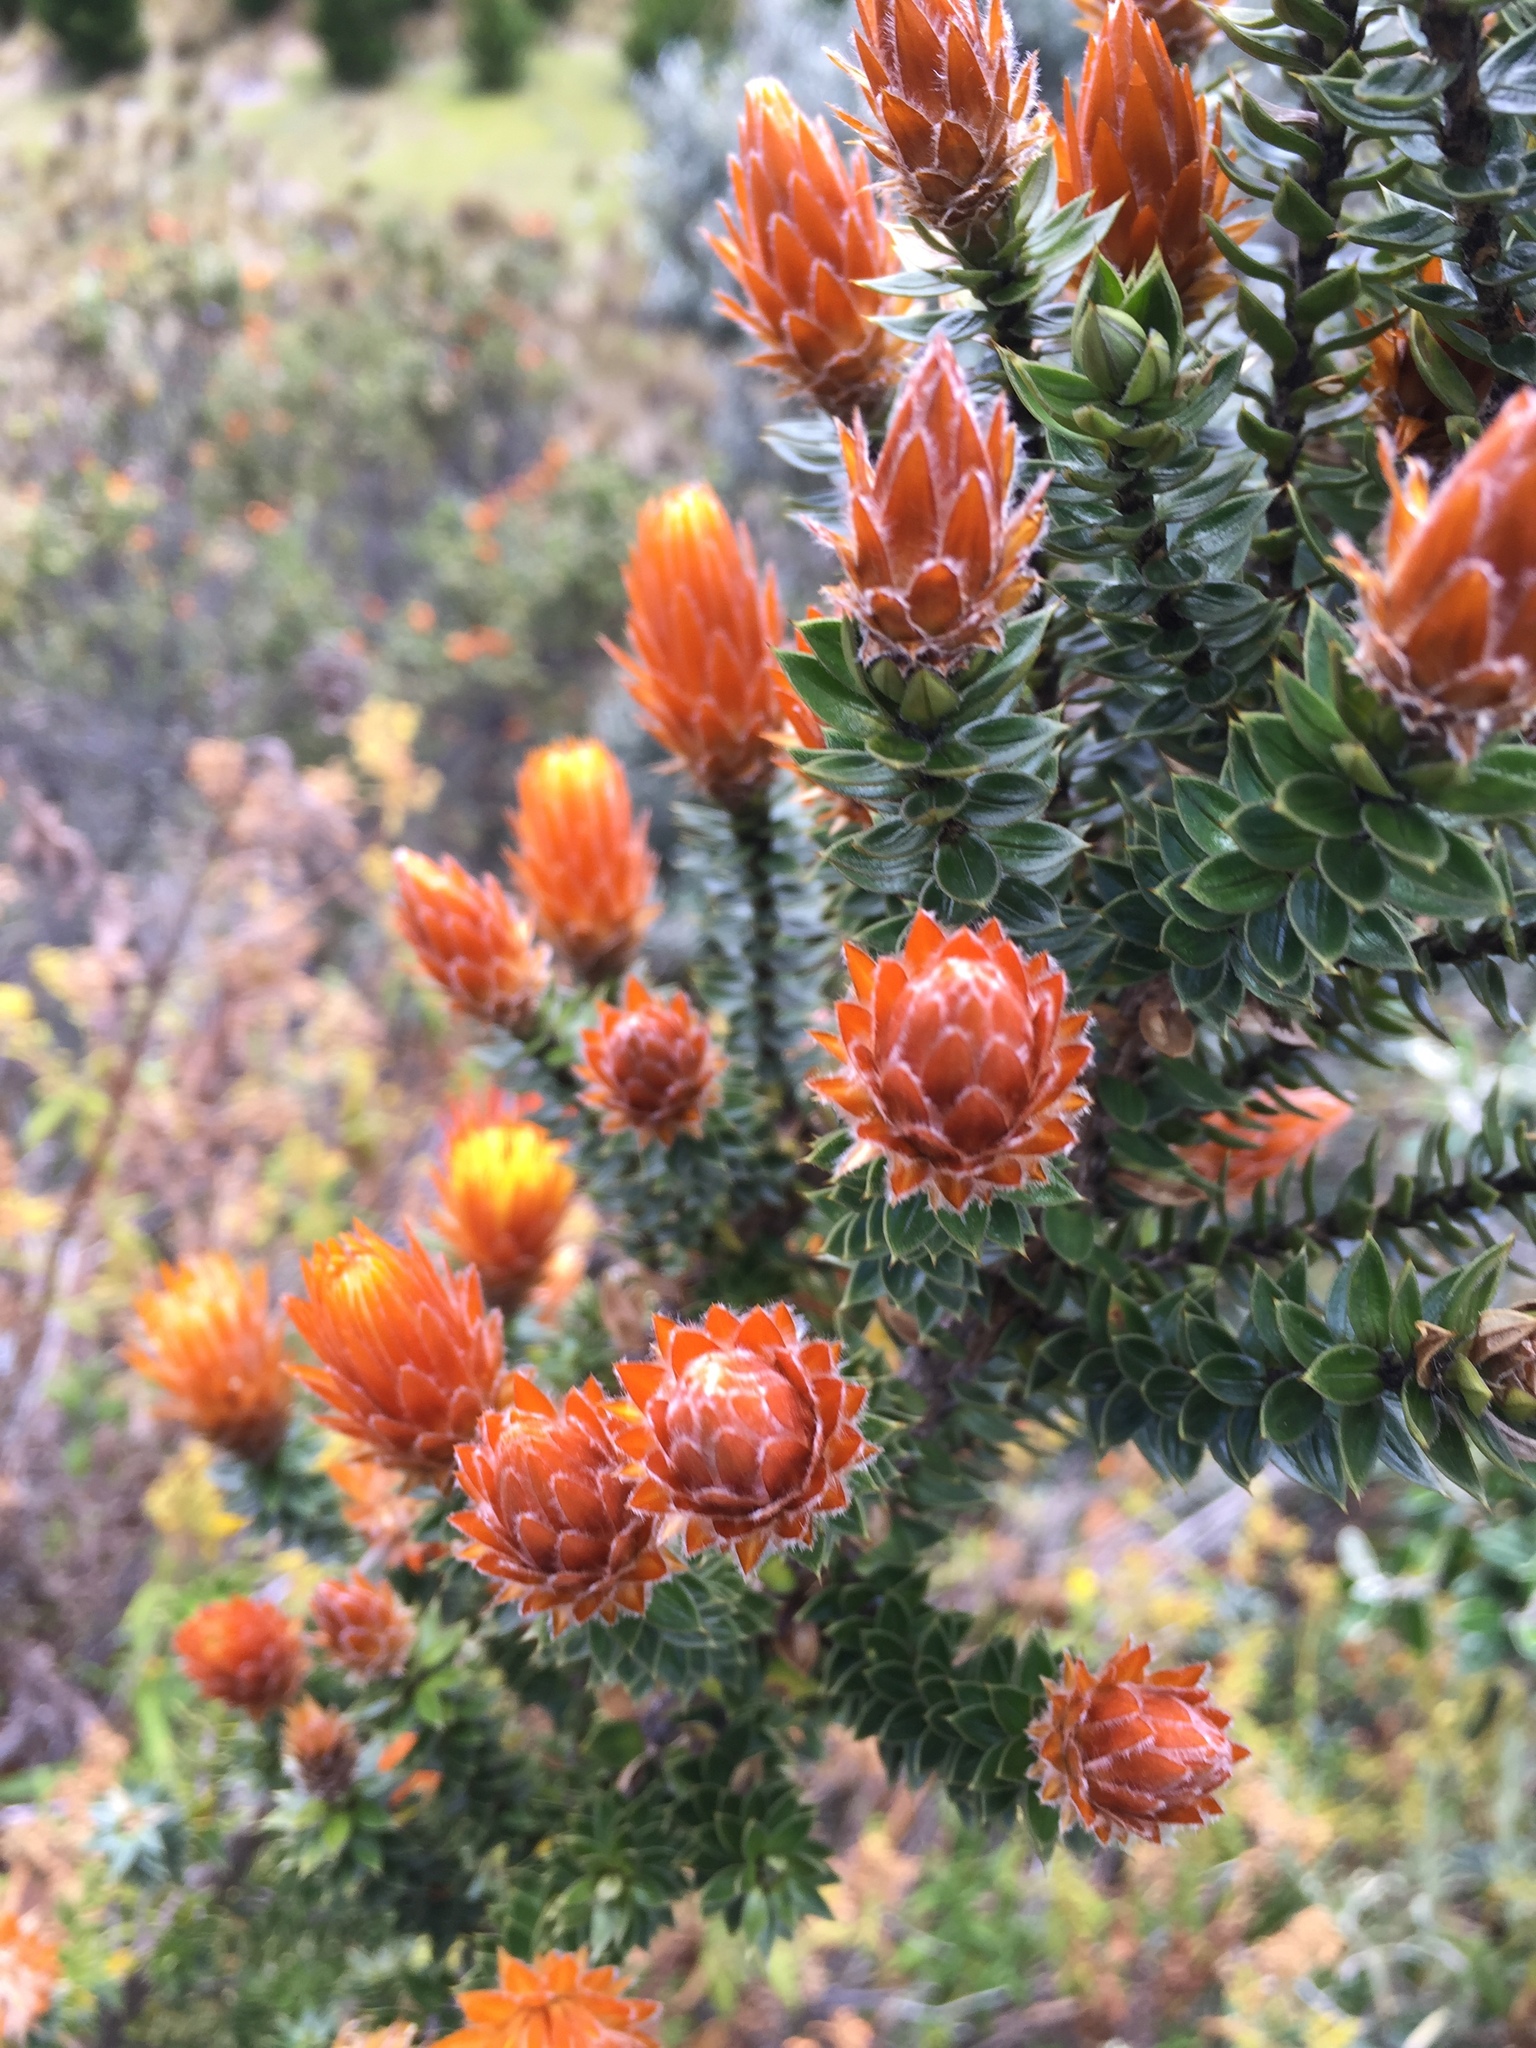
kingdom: Plantae
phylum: Tracheophyta
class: Magnoliopsida
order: Asterales
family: Asteraceae
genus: Chuquiraga
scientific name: Chuquiraga jussieui
